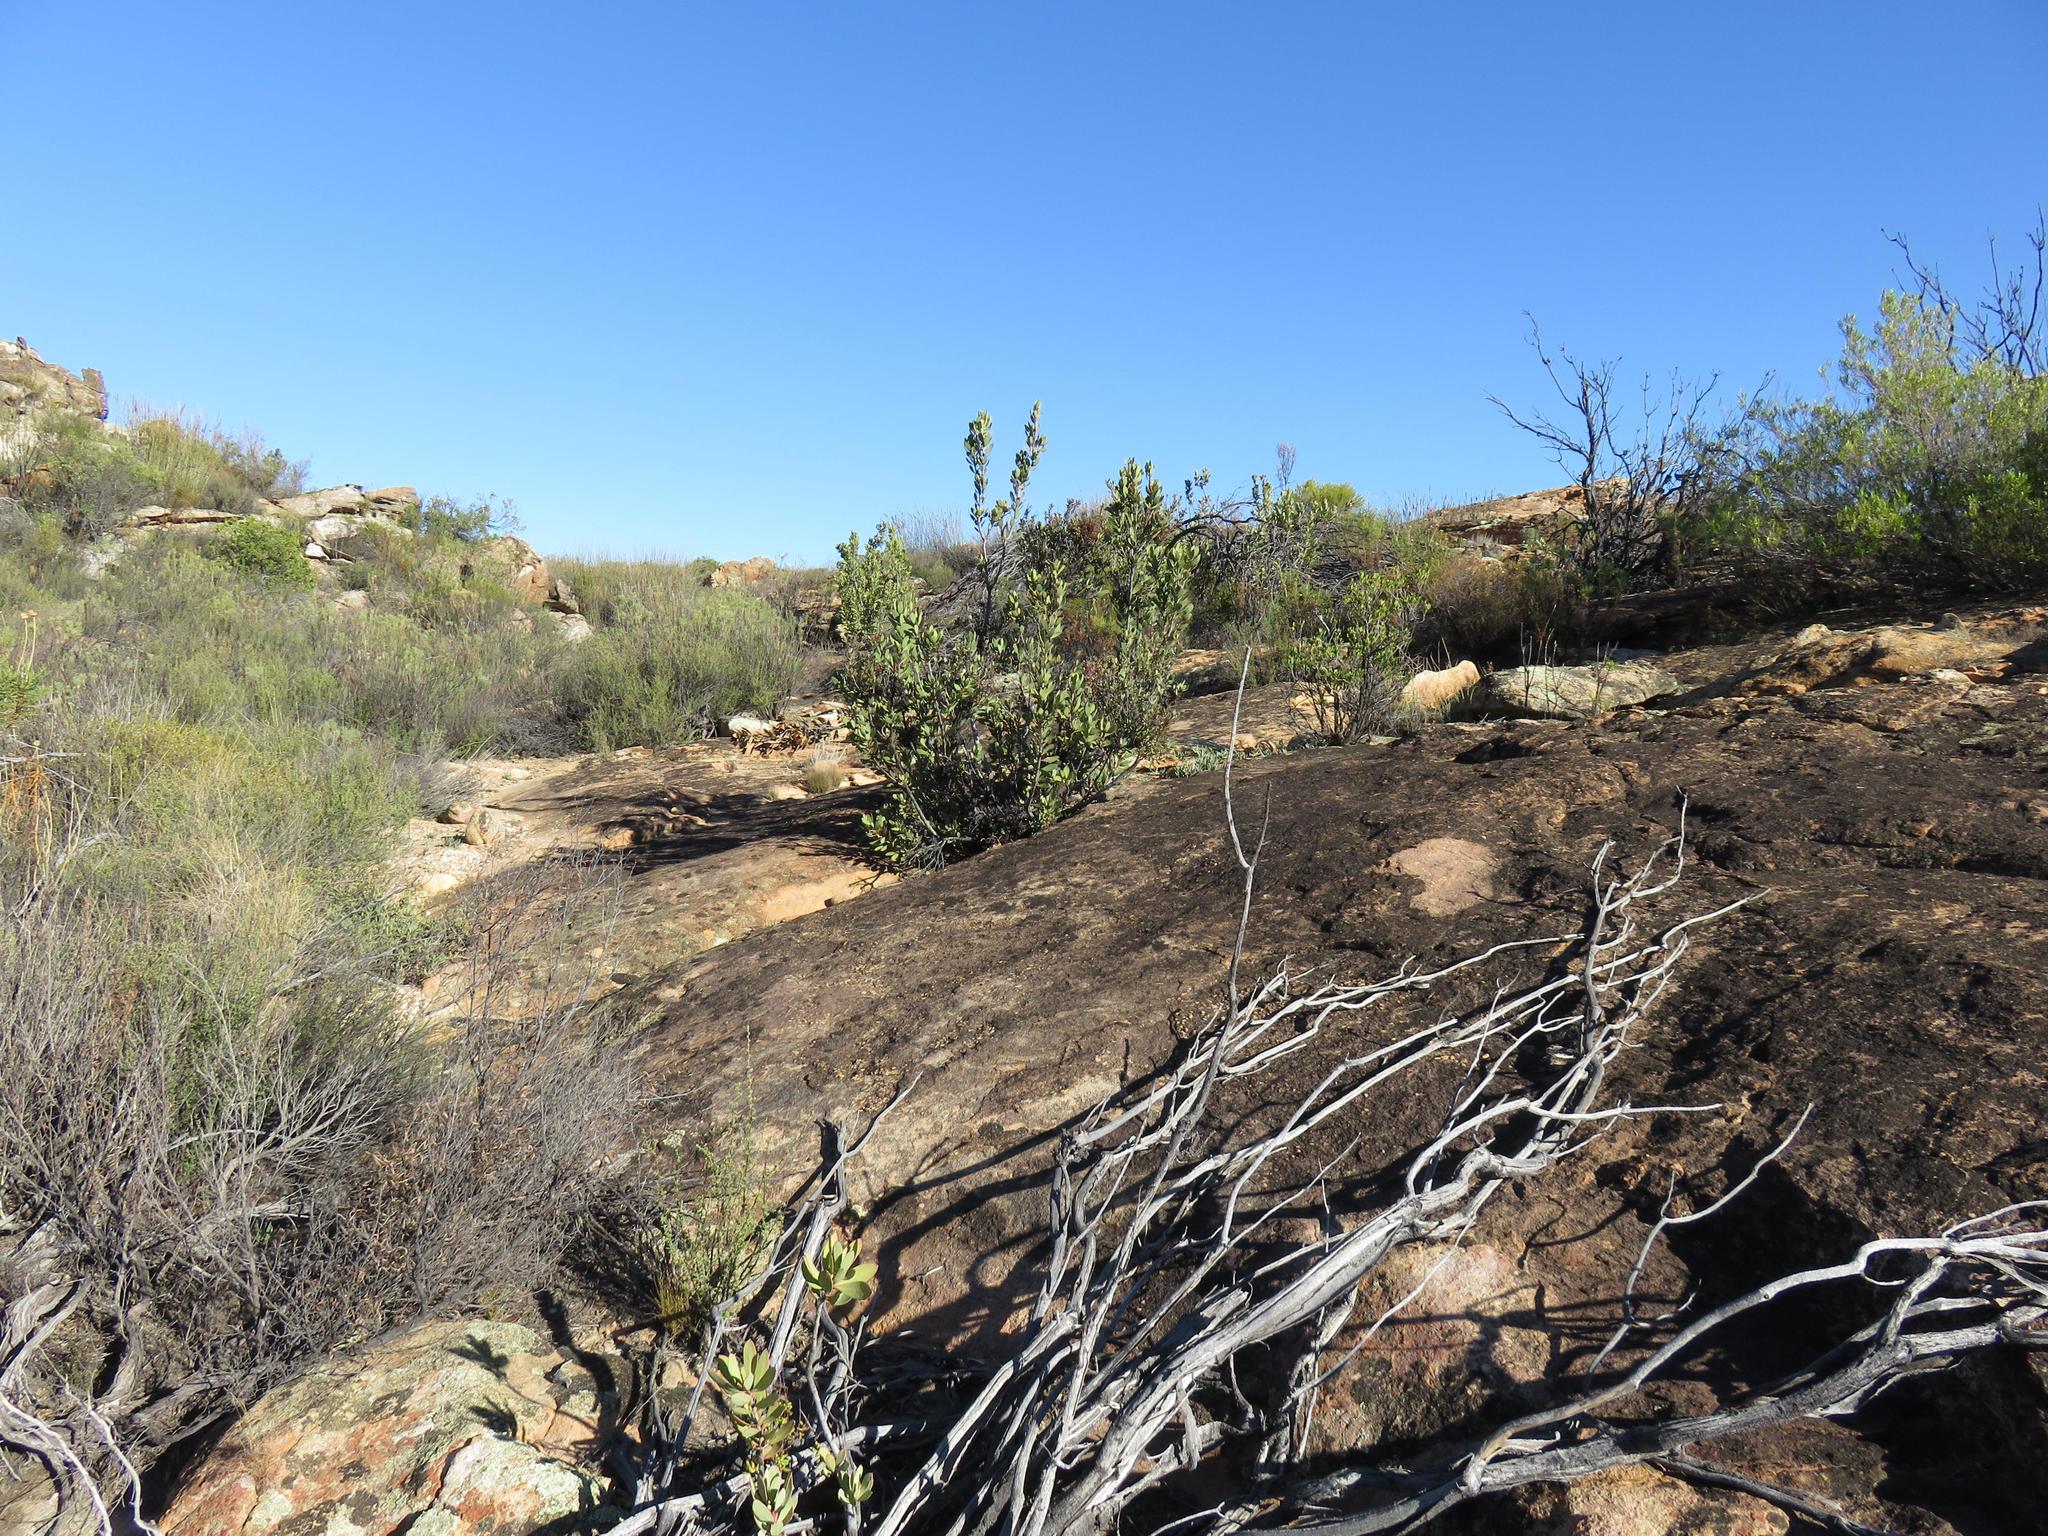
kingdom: Plantae
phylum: Tracheophyta
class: Magnoliopsida
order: Proteales
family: Proteaceae
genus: Protea
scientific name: Protea glabra
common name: Chestnut sugarbush
